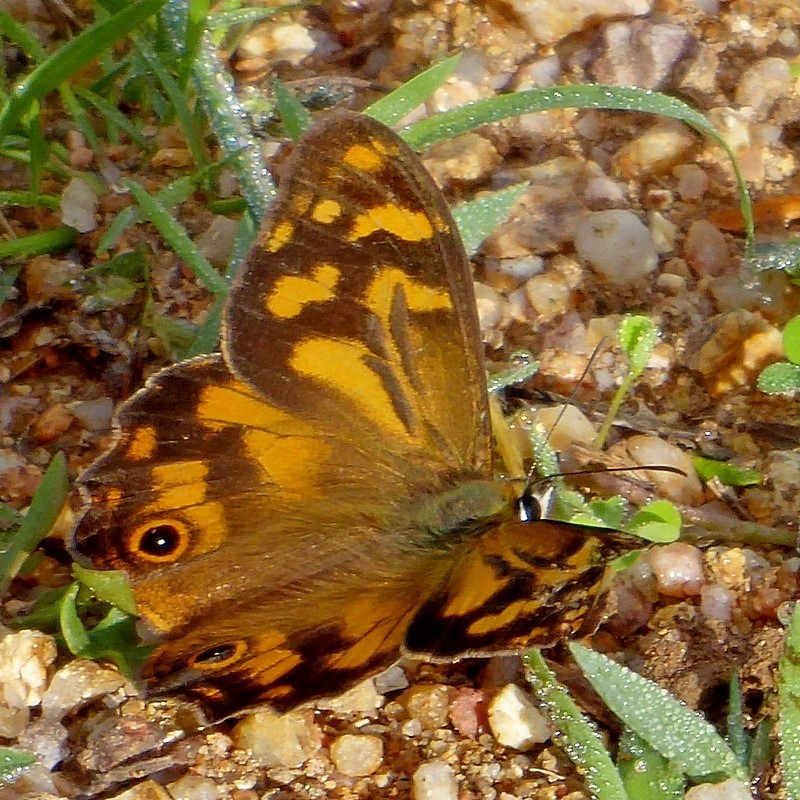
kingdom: Animalia
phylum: Arthropoda
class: Insecta
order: Lepidoptera
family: Nymphalidae
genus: Heteronympha
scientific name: Heteronympha banksii
